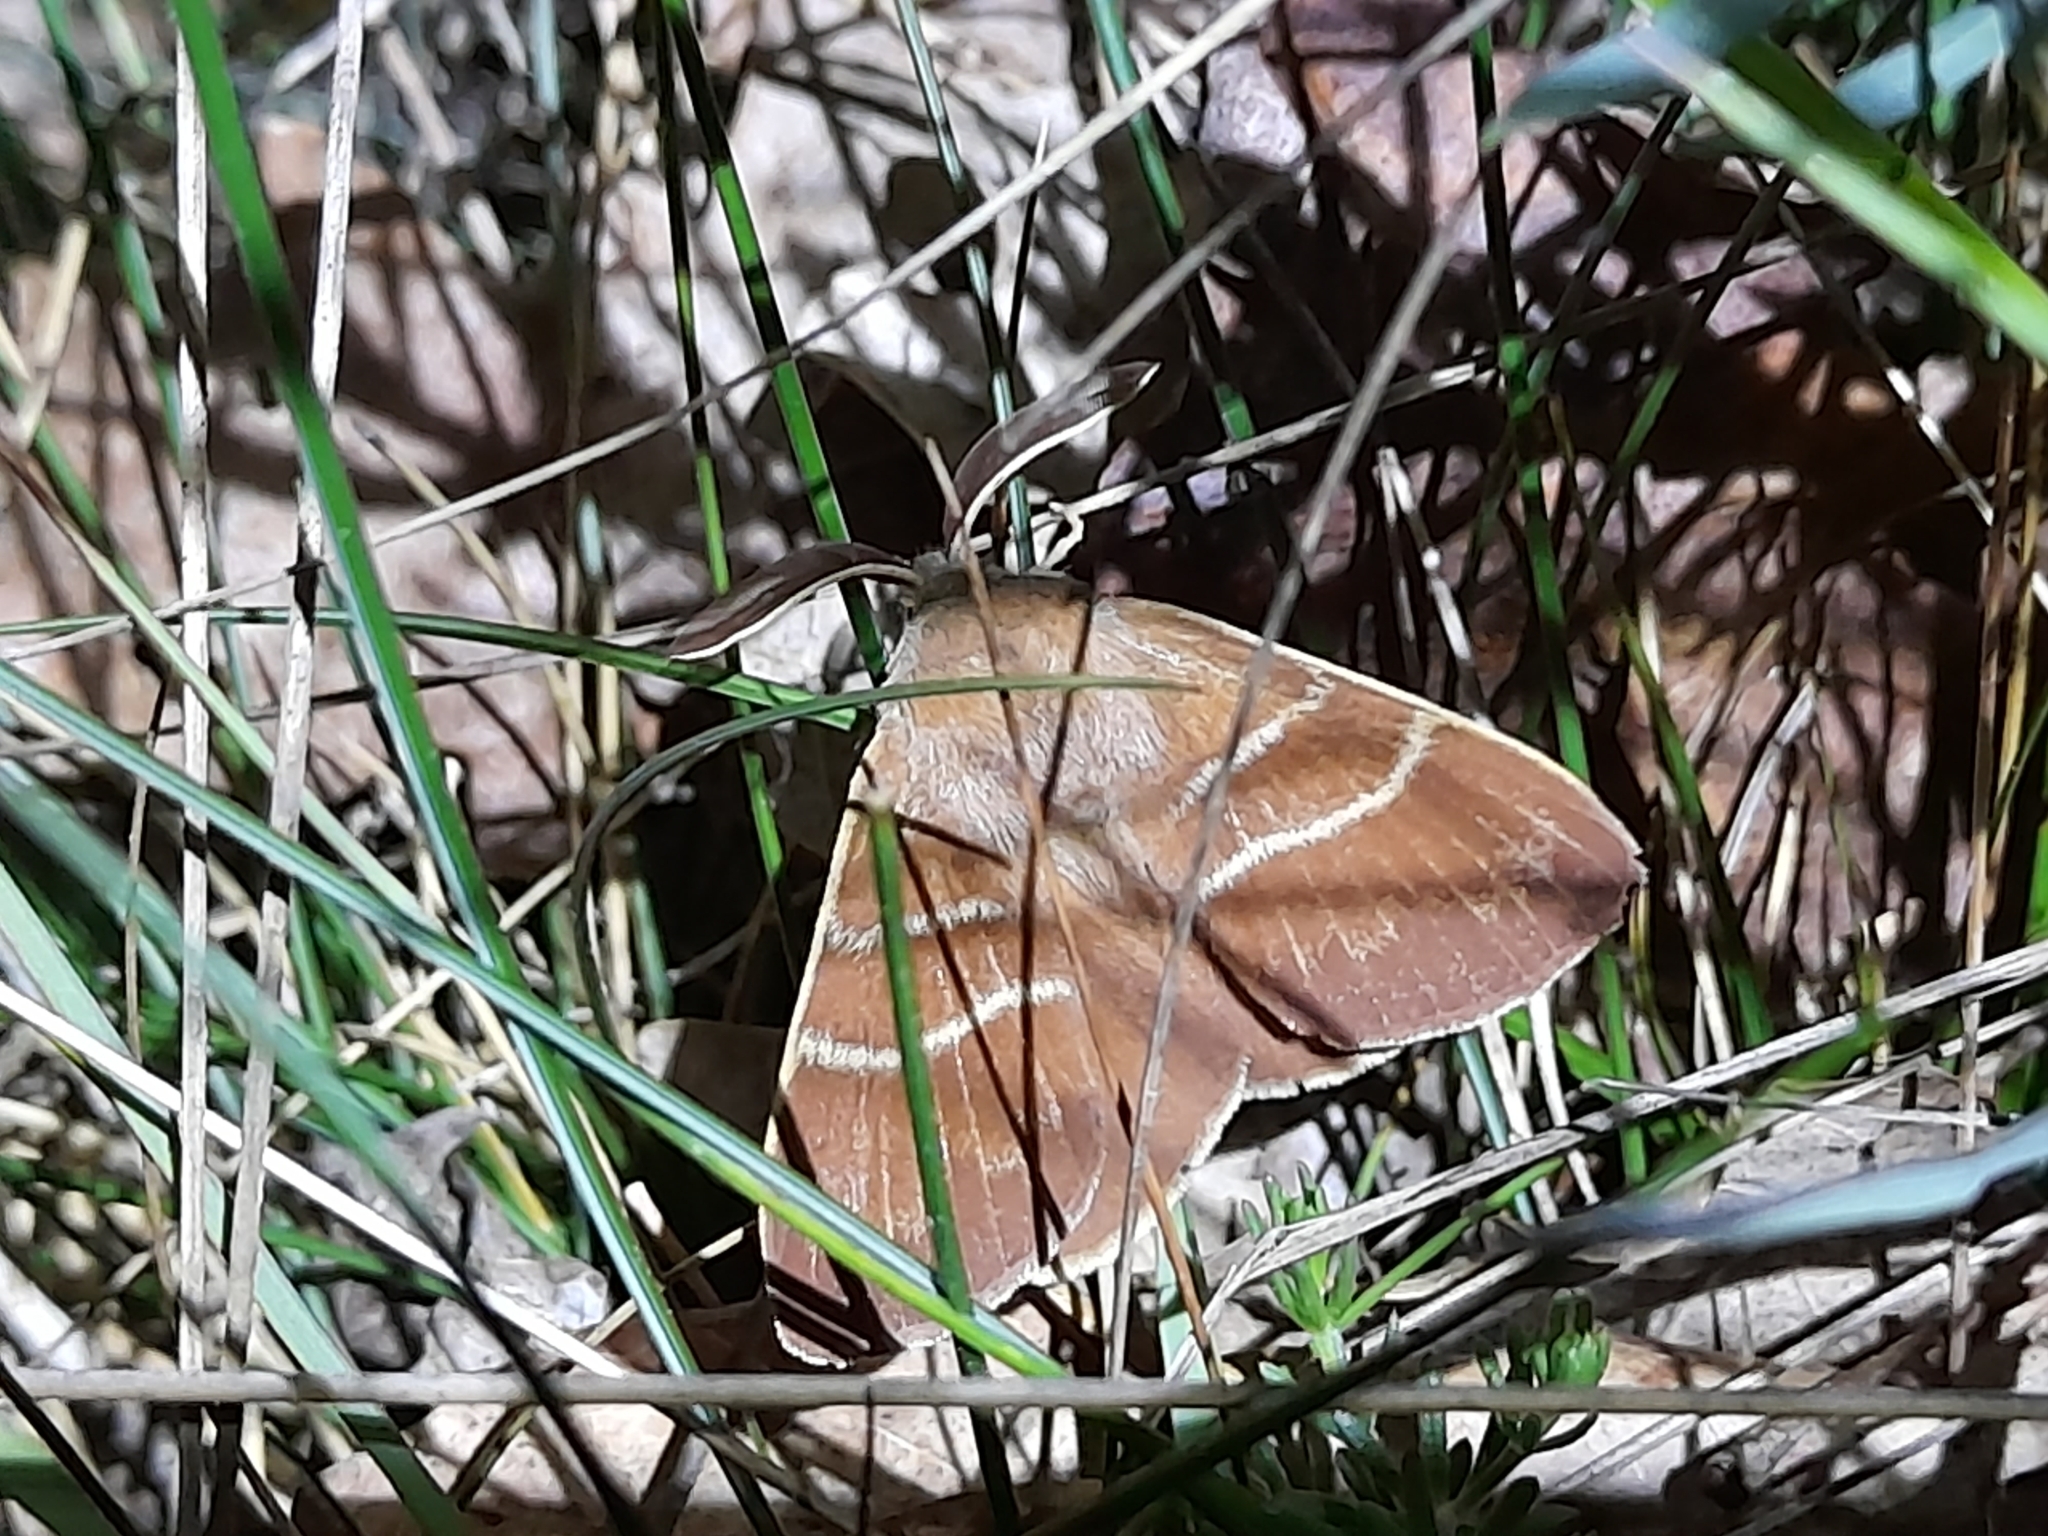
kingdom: Animalia
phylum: Arthropoda
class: Insecta
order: Lepidoptera
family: Lasiocampidae
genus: Macrothylacia
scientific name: Macrothylacia rubi
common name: Fox moth
